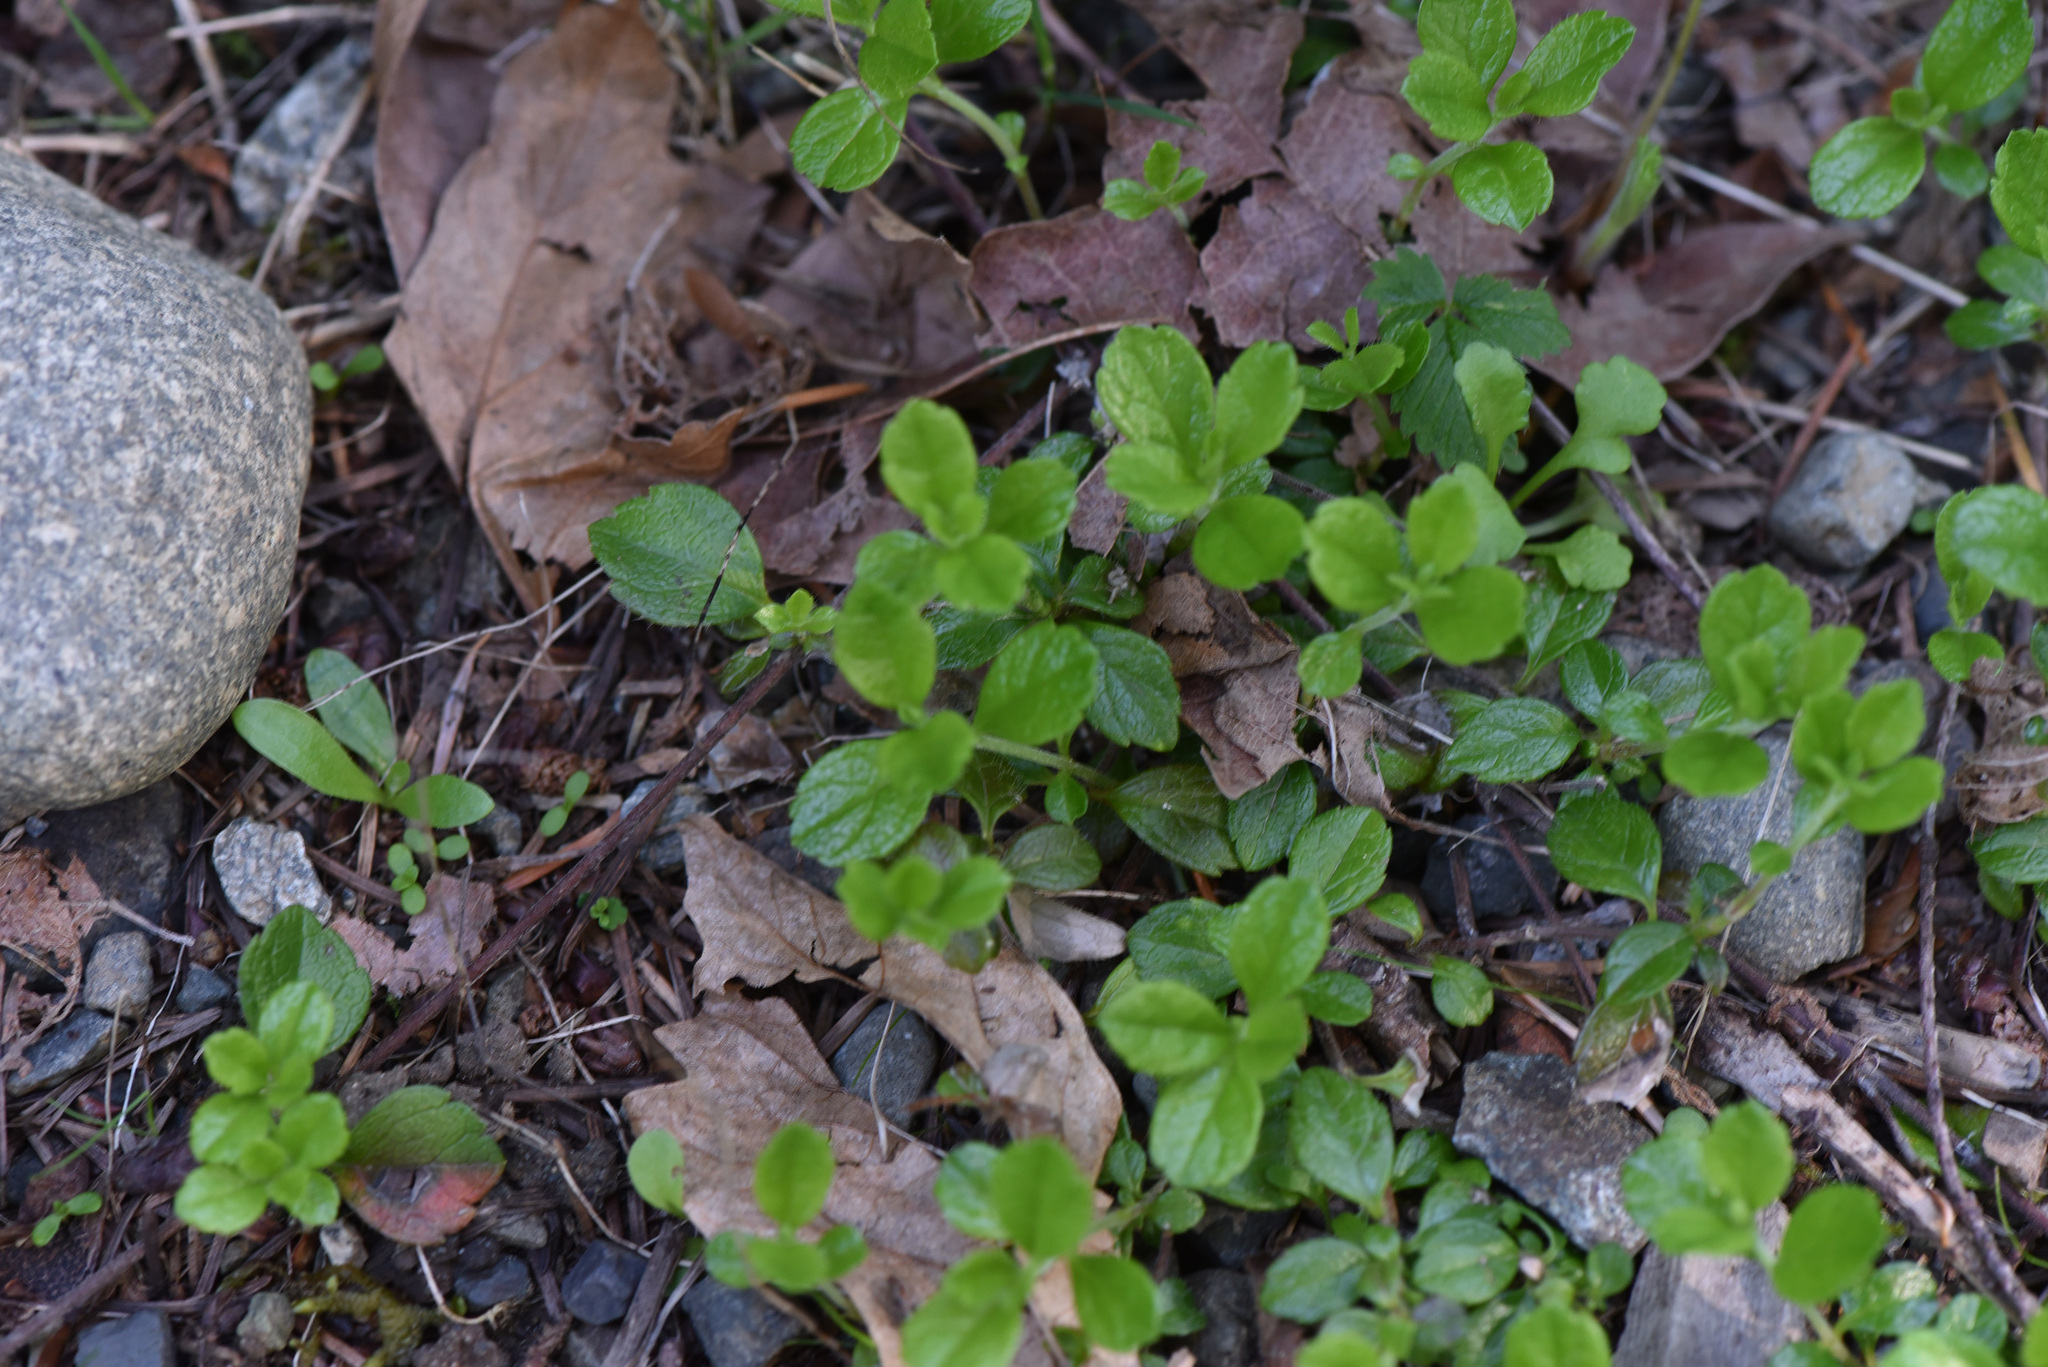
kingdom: Plantae
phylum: Tracheophyta
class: Magnoliopsida
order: Dipsacales
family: Caprifoliaceae
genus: Linnaea
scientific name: Linnaea borealis
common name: Twinflower
